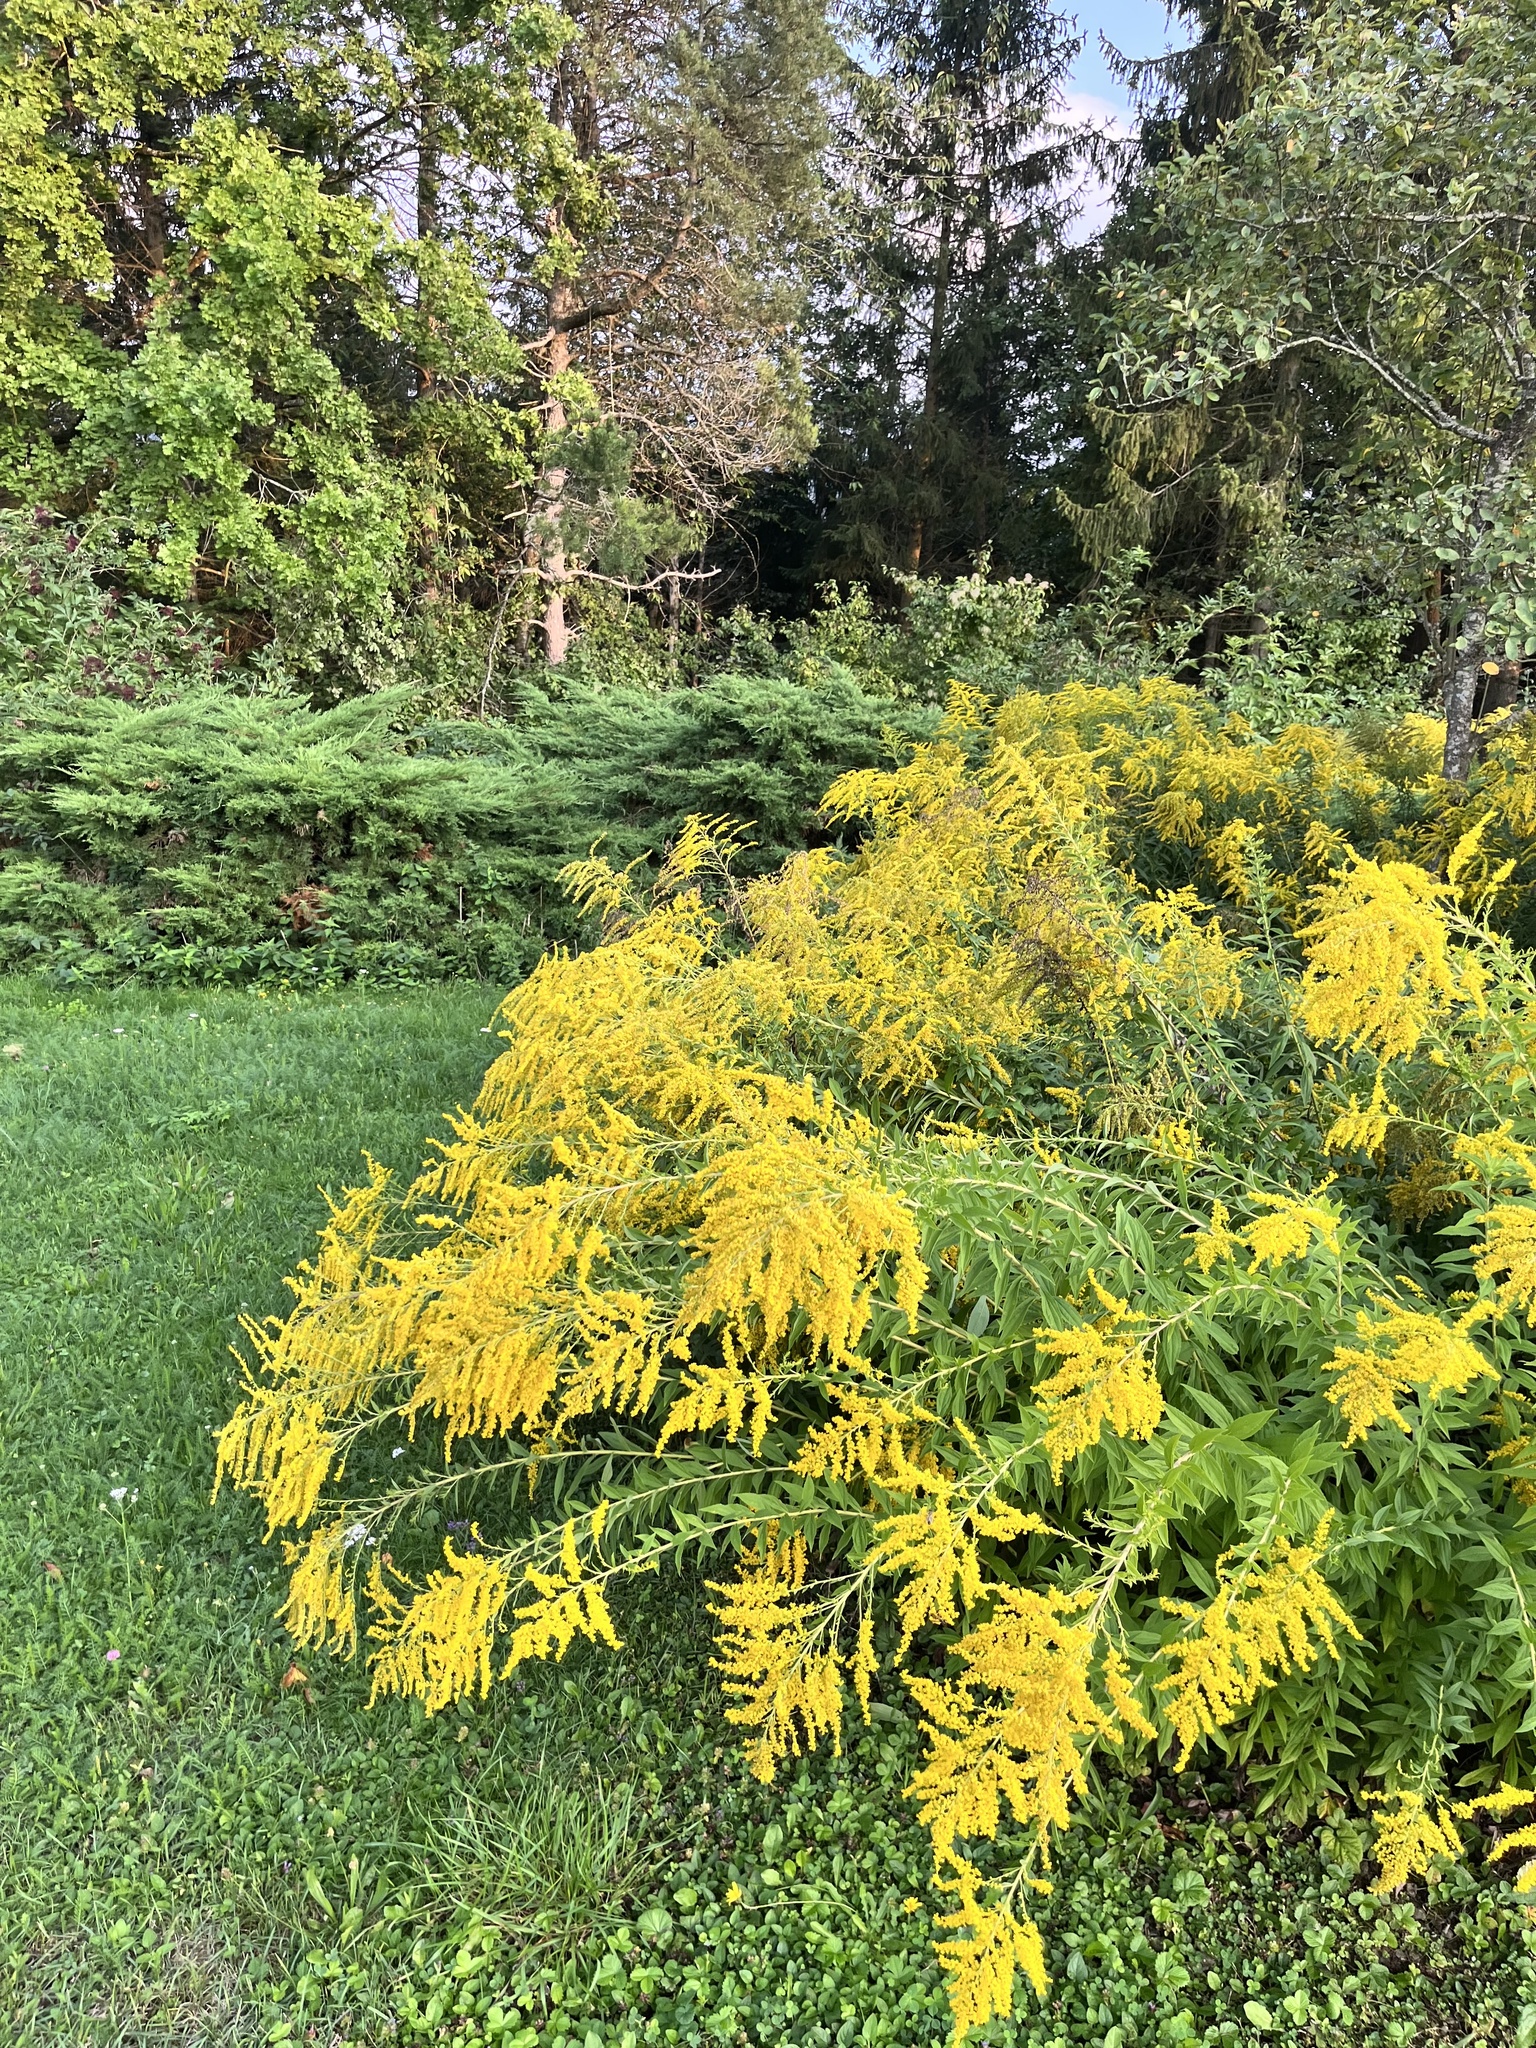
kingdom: Plantae
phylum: Tracheophyta
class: Magnoliopsida
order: Asterales
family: Asteraceae
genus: Solidago
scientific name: Solidago canadensis
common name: Canada goldenrod
